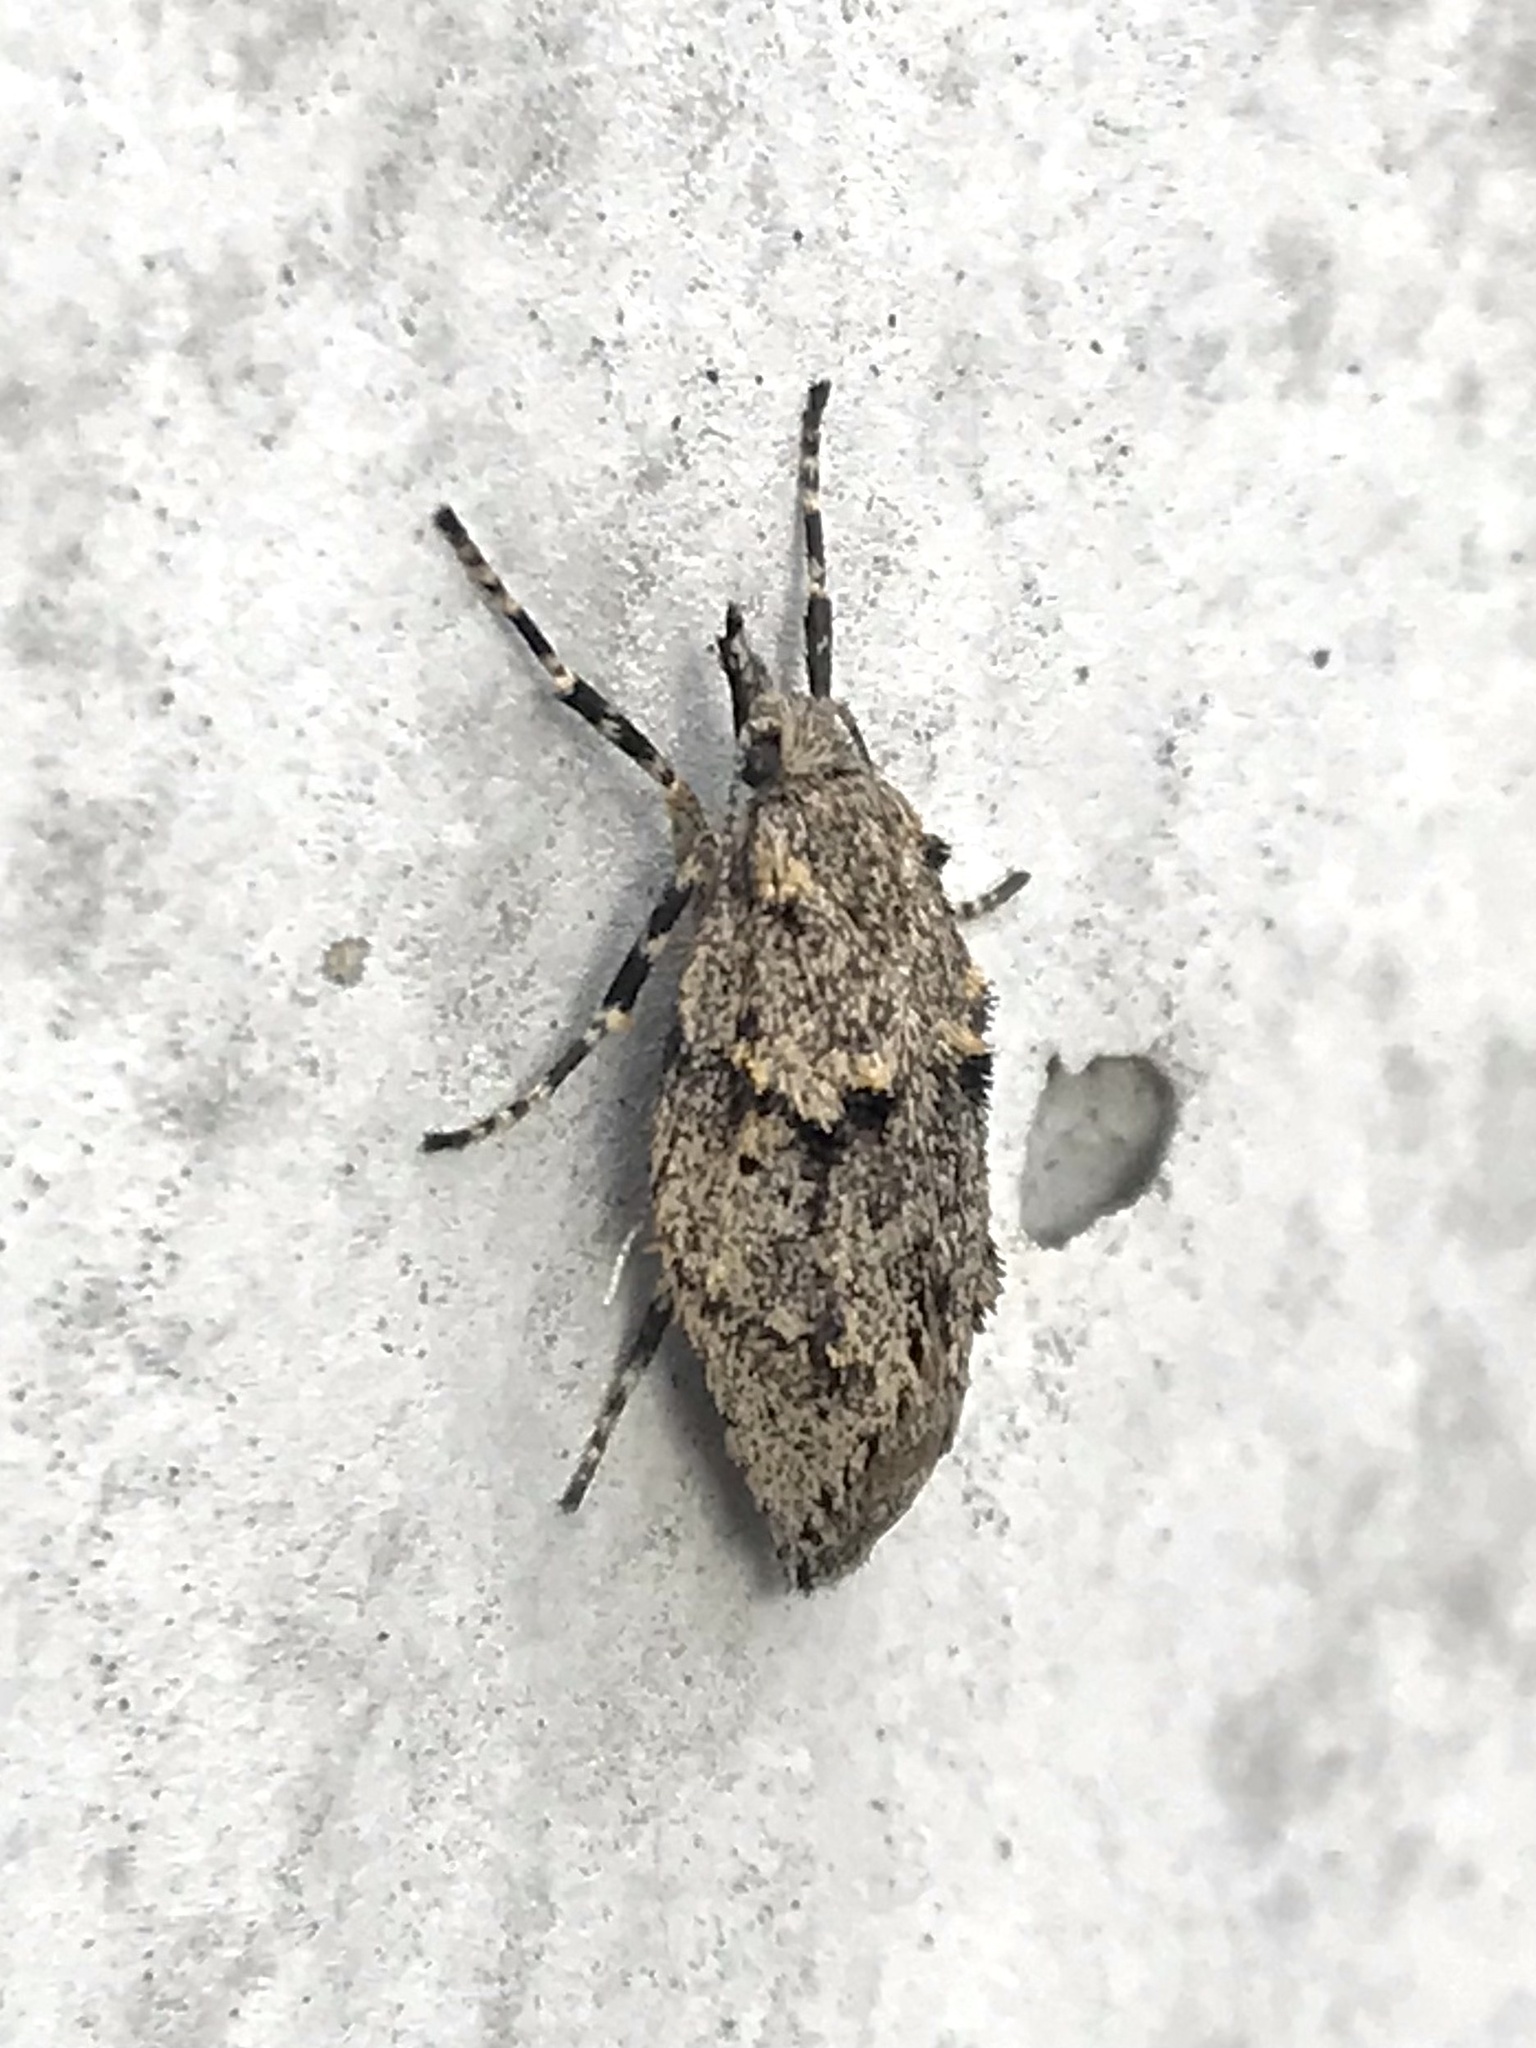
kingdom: Animalia
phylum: Arthropoda
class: Insecta
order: Lepidoptera
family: Lypusidae
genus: Diurnea
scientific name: Diurnea fagella
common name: March tubic
